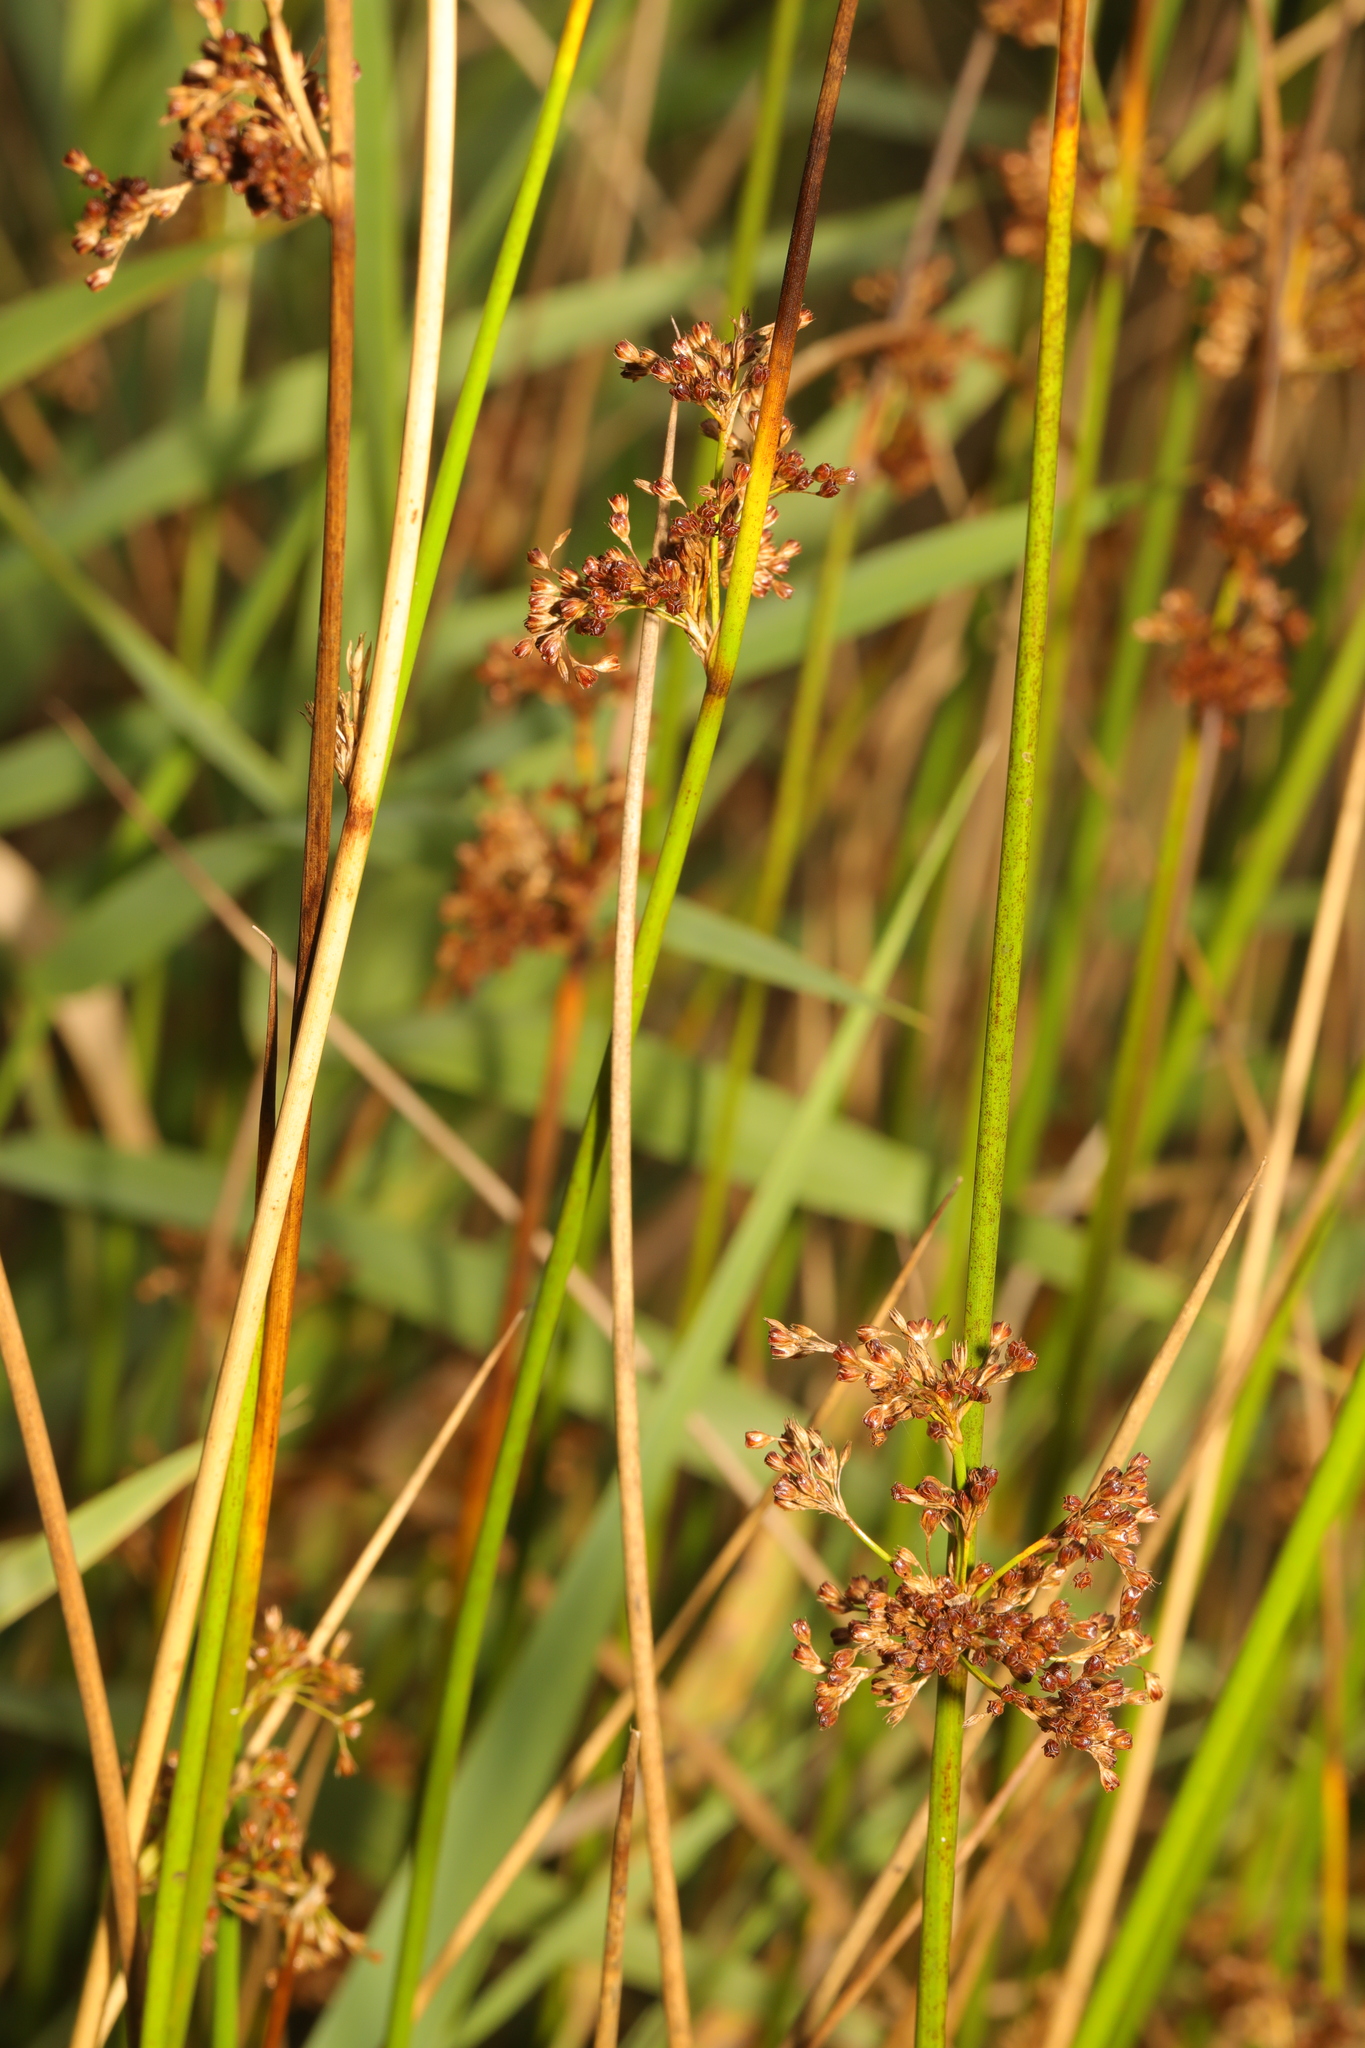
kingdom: Plantae
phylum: Tracheophyta
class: Liliopsida
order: Poales
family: Juncaceae
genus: Juncus
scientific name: Juncus effusus
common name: Soft rush
